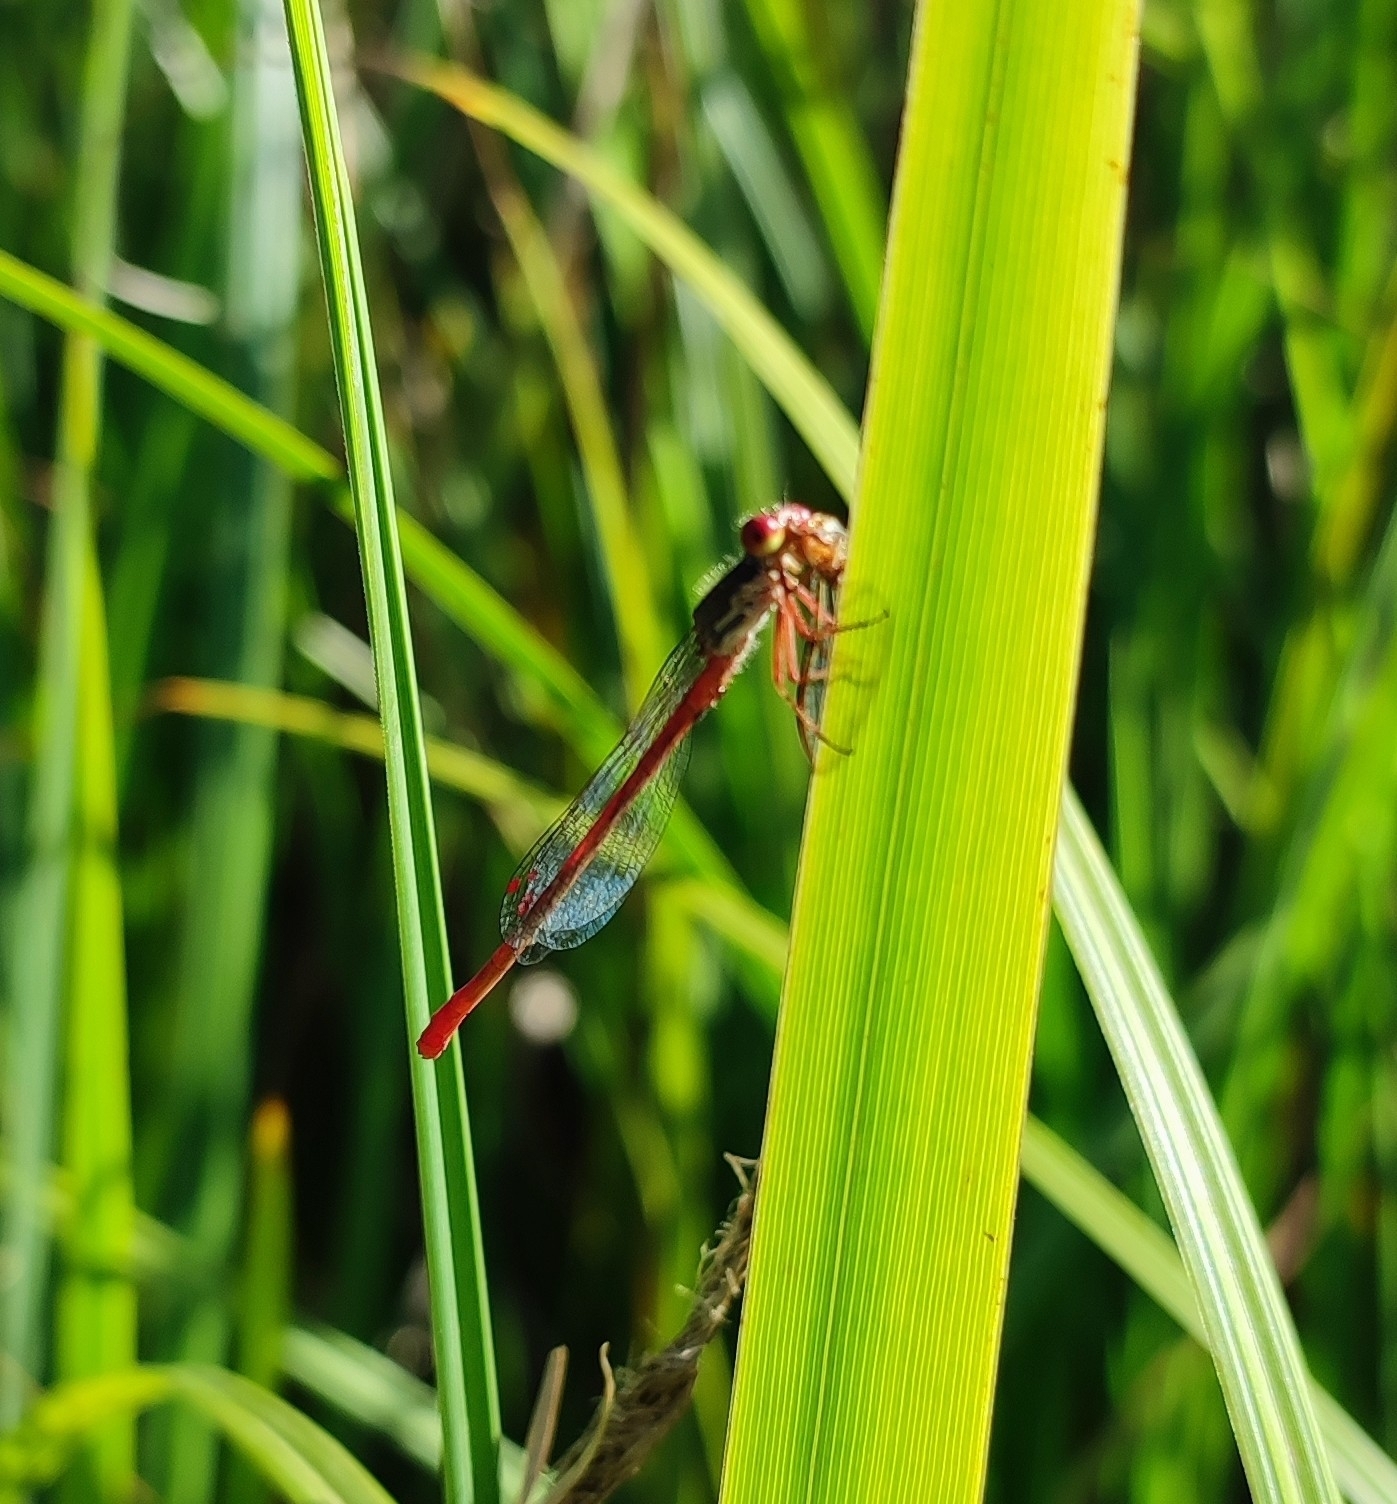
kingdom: Animalia
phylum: Arthropoda
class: Insecta
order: Odonata
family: Coenagrionidae
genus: Ceriagrion
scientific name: Ceriagrion tenellum
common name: Small red damselfly
